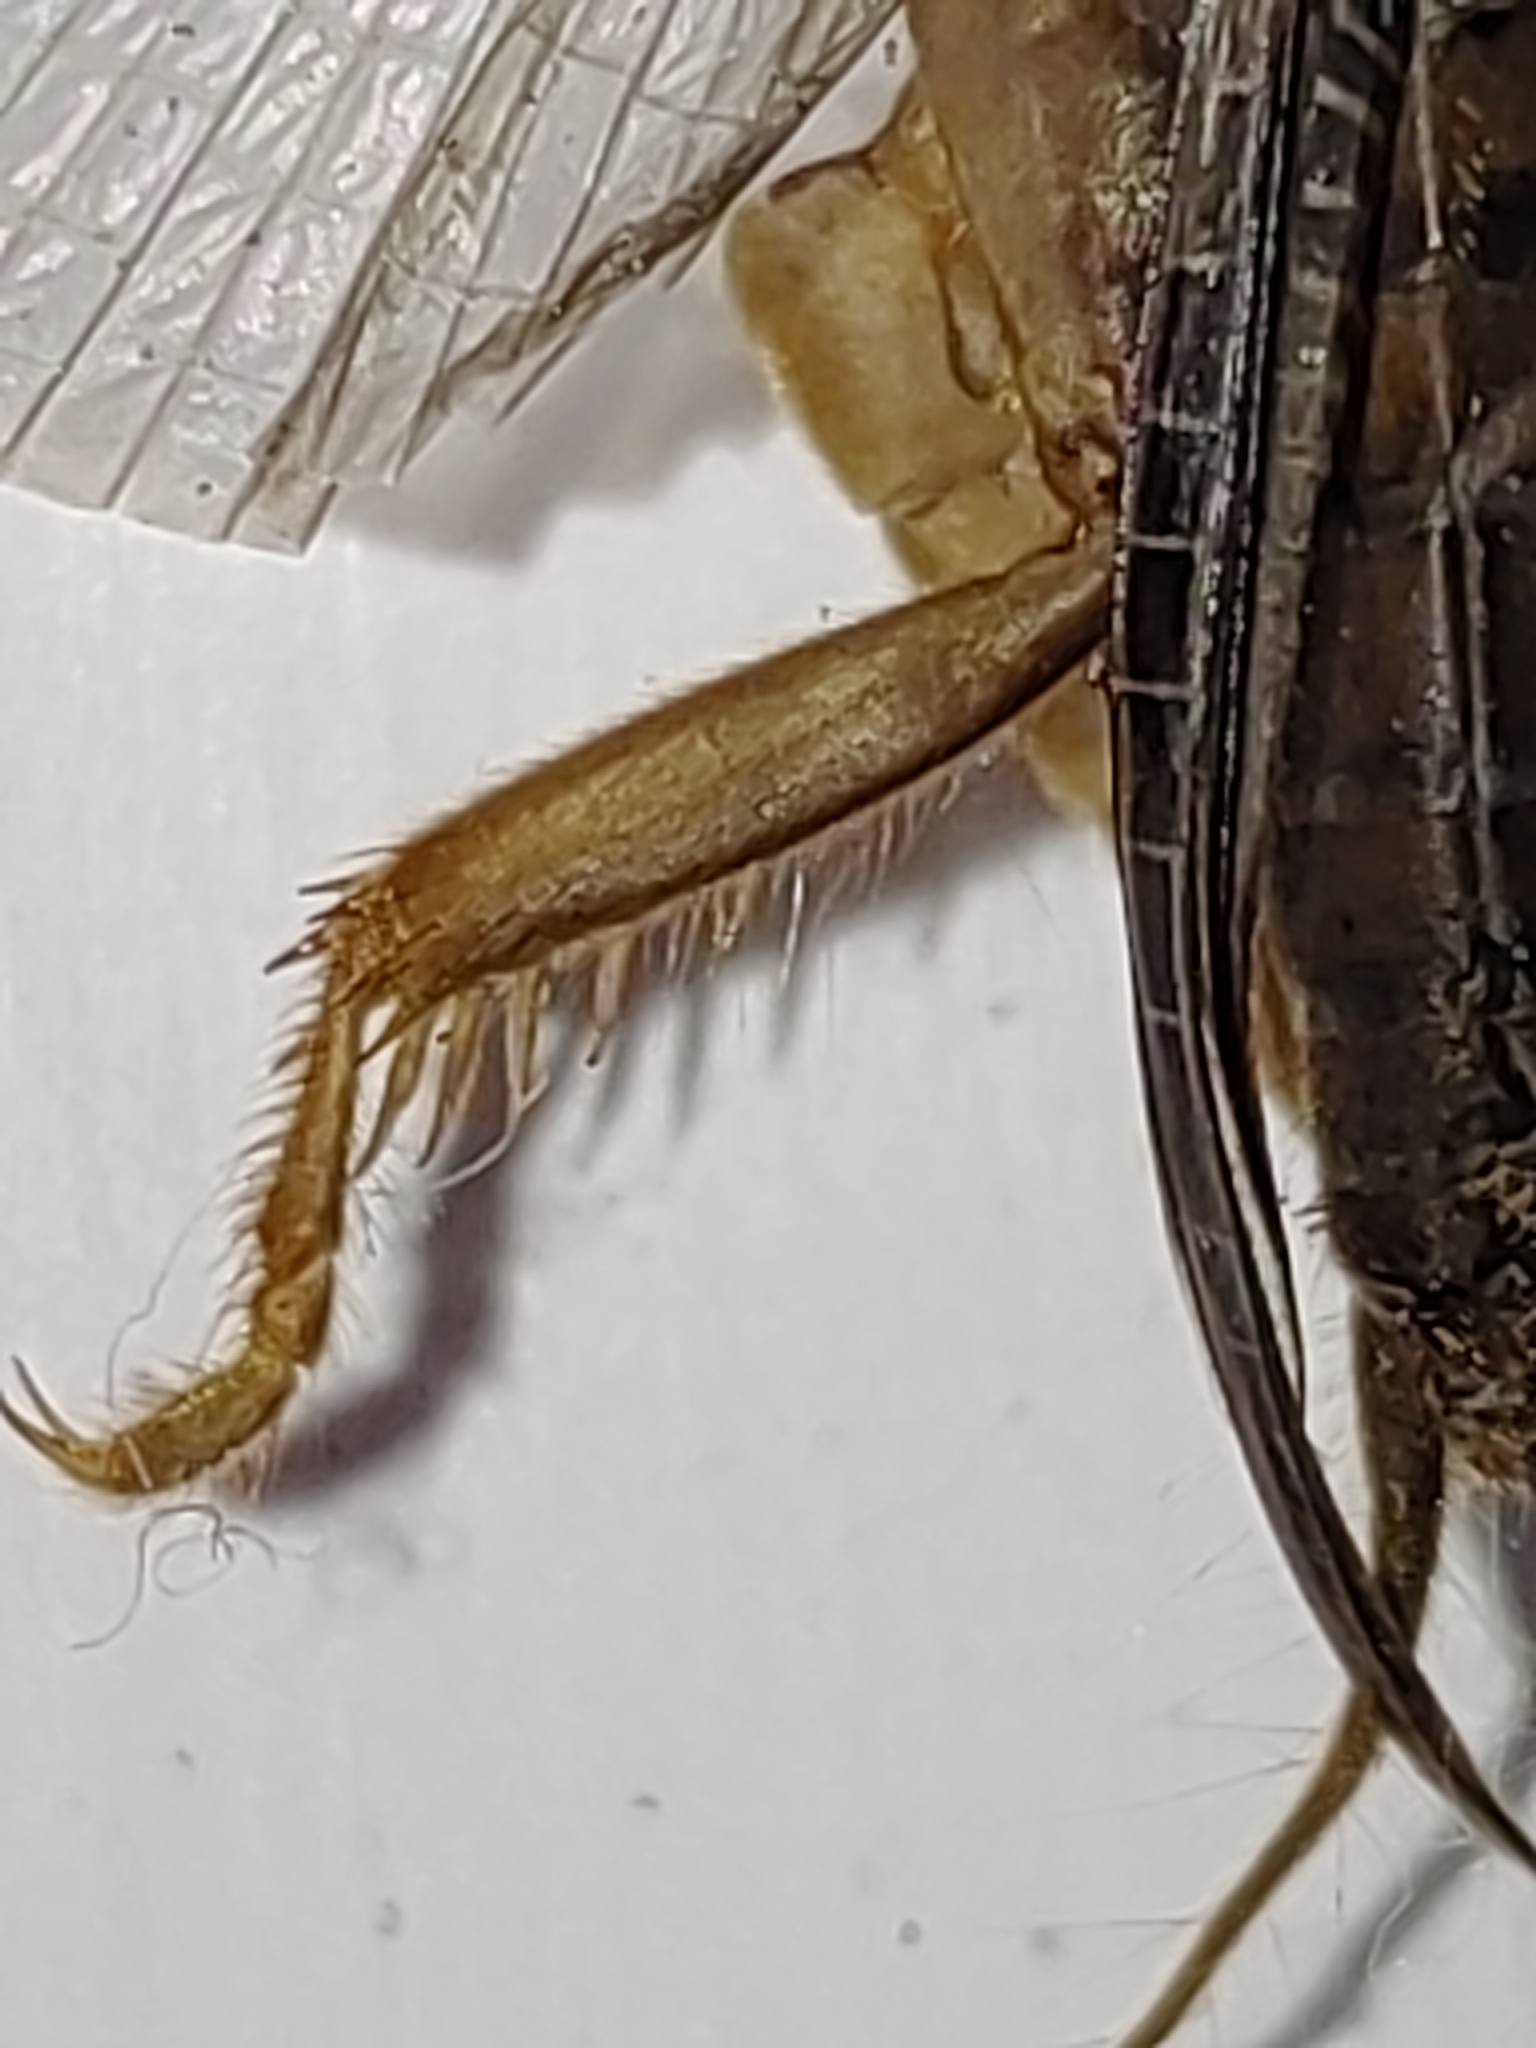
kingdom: Animalia
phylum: Arthropoda
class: Insecta
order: Orthoptera
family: Gryllotalpidae
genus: Gryllotalpa
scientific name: Gryllotalpa orientalis
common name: Grasshopper
